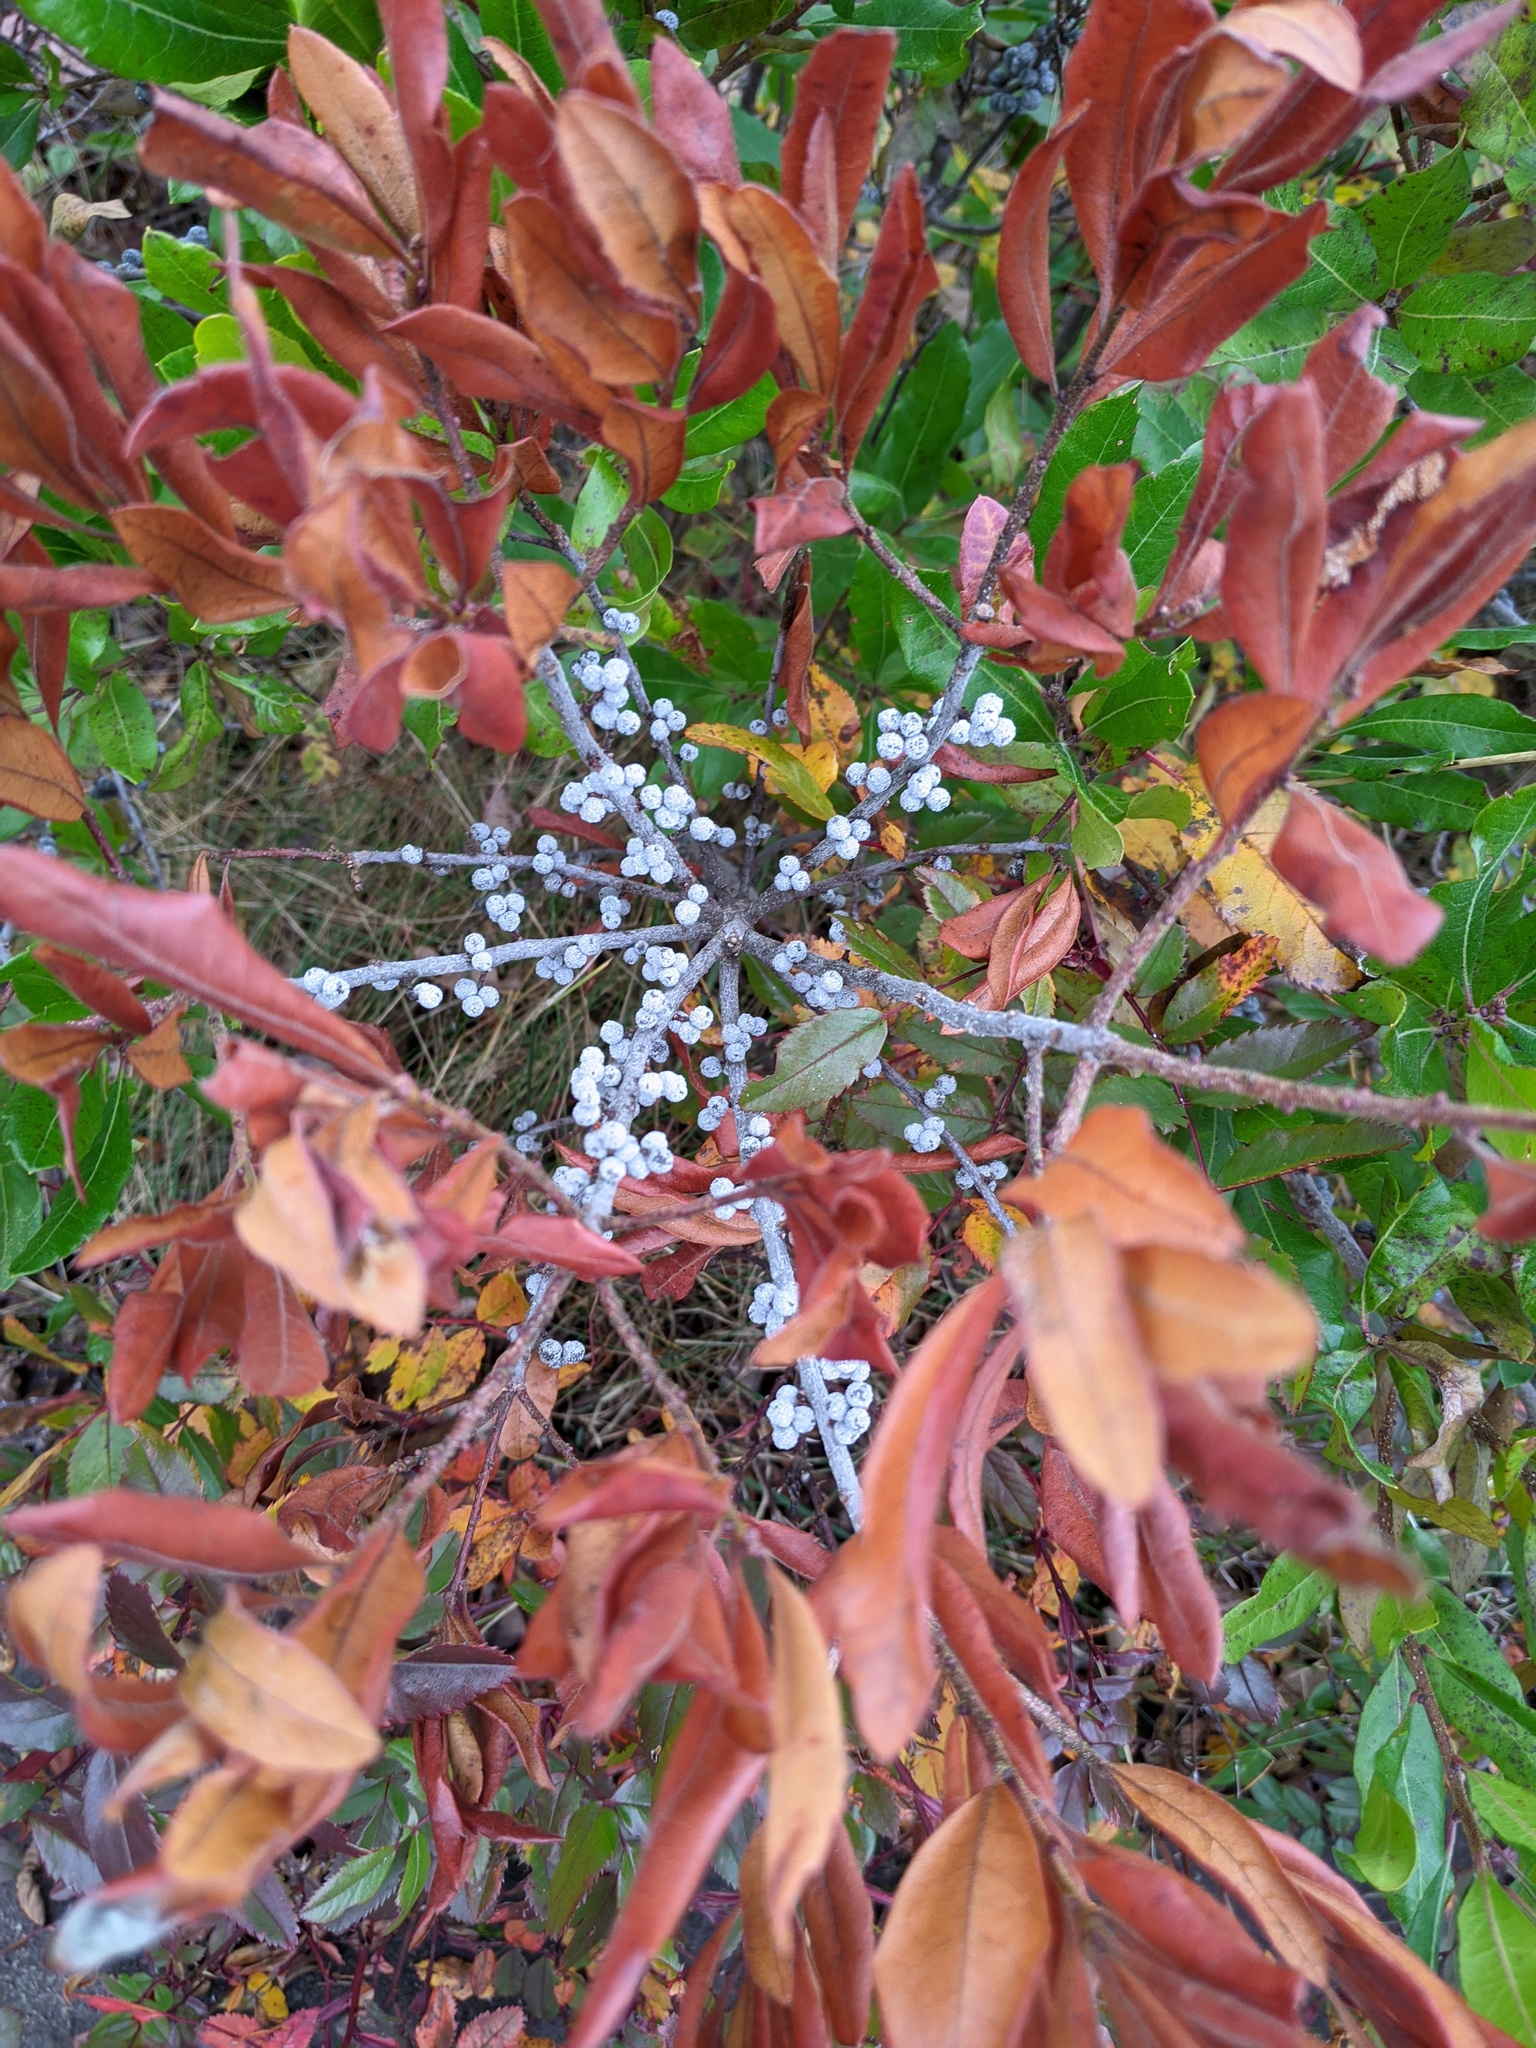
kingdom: Plantae
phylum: Tracheophyta
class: Magnoliopsida
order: Fagales
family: Myricaceae
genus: Morella
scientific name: Morella pensylvanica
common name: Northern bayberry
